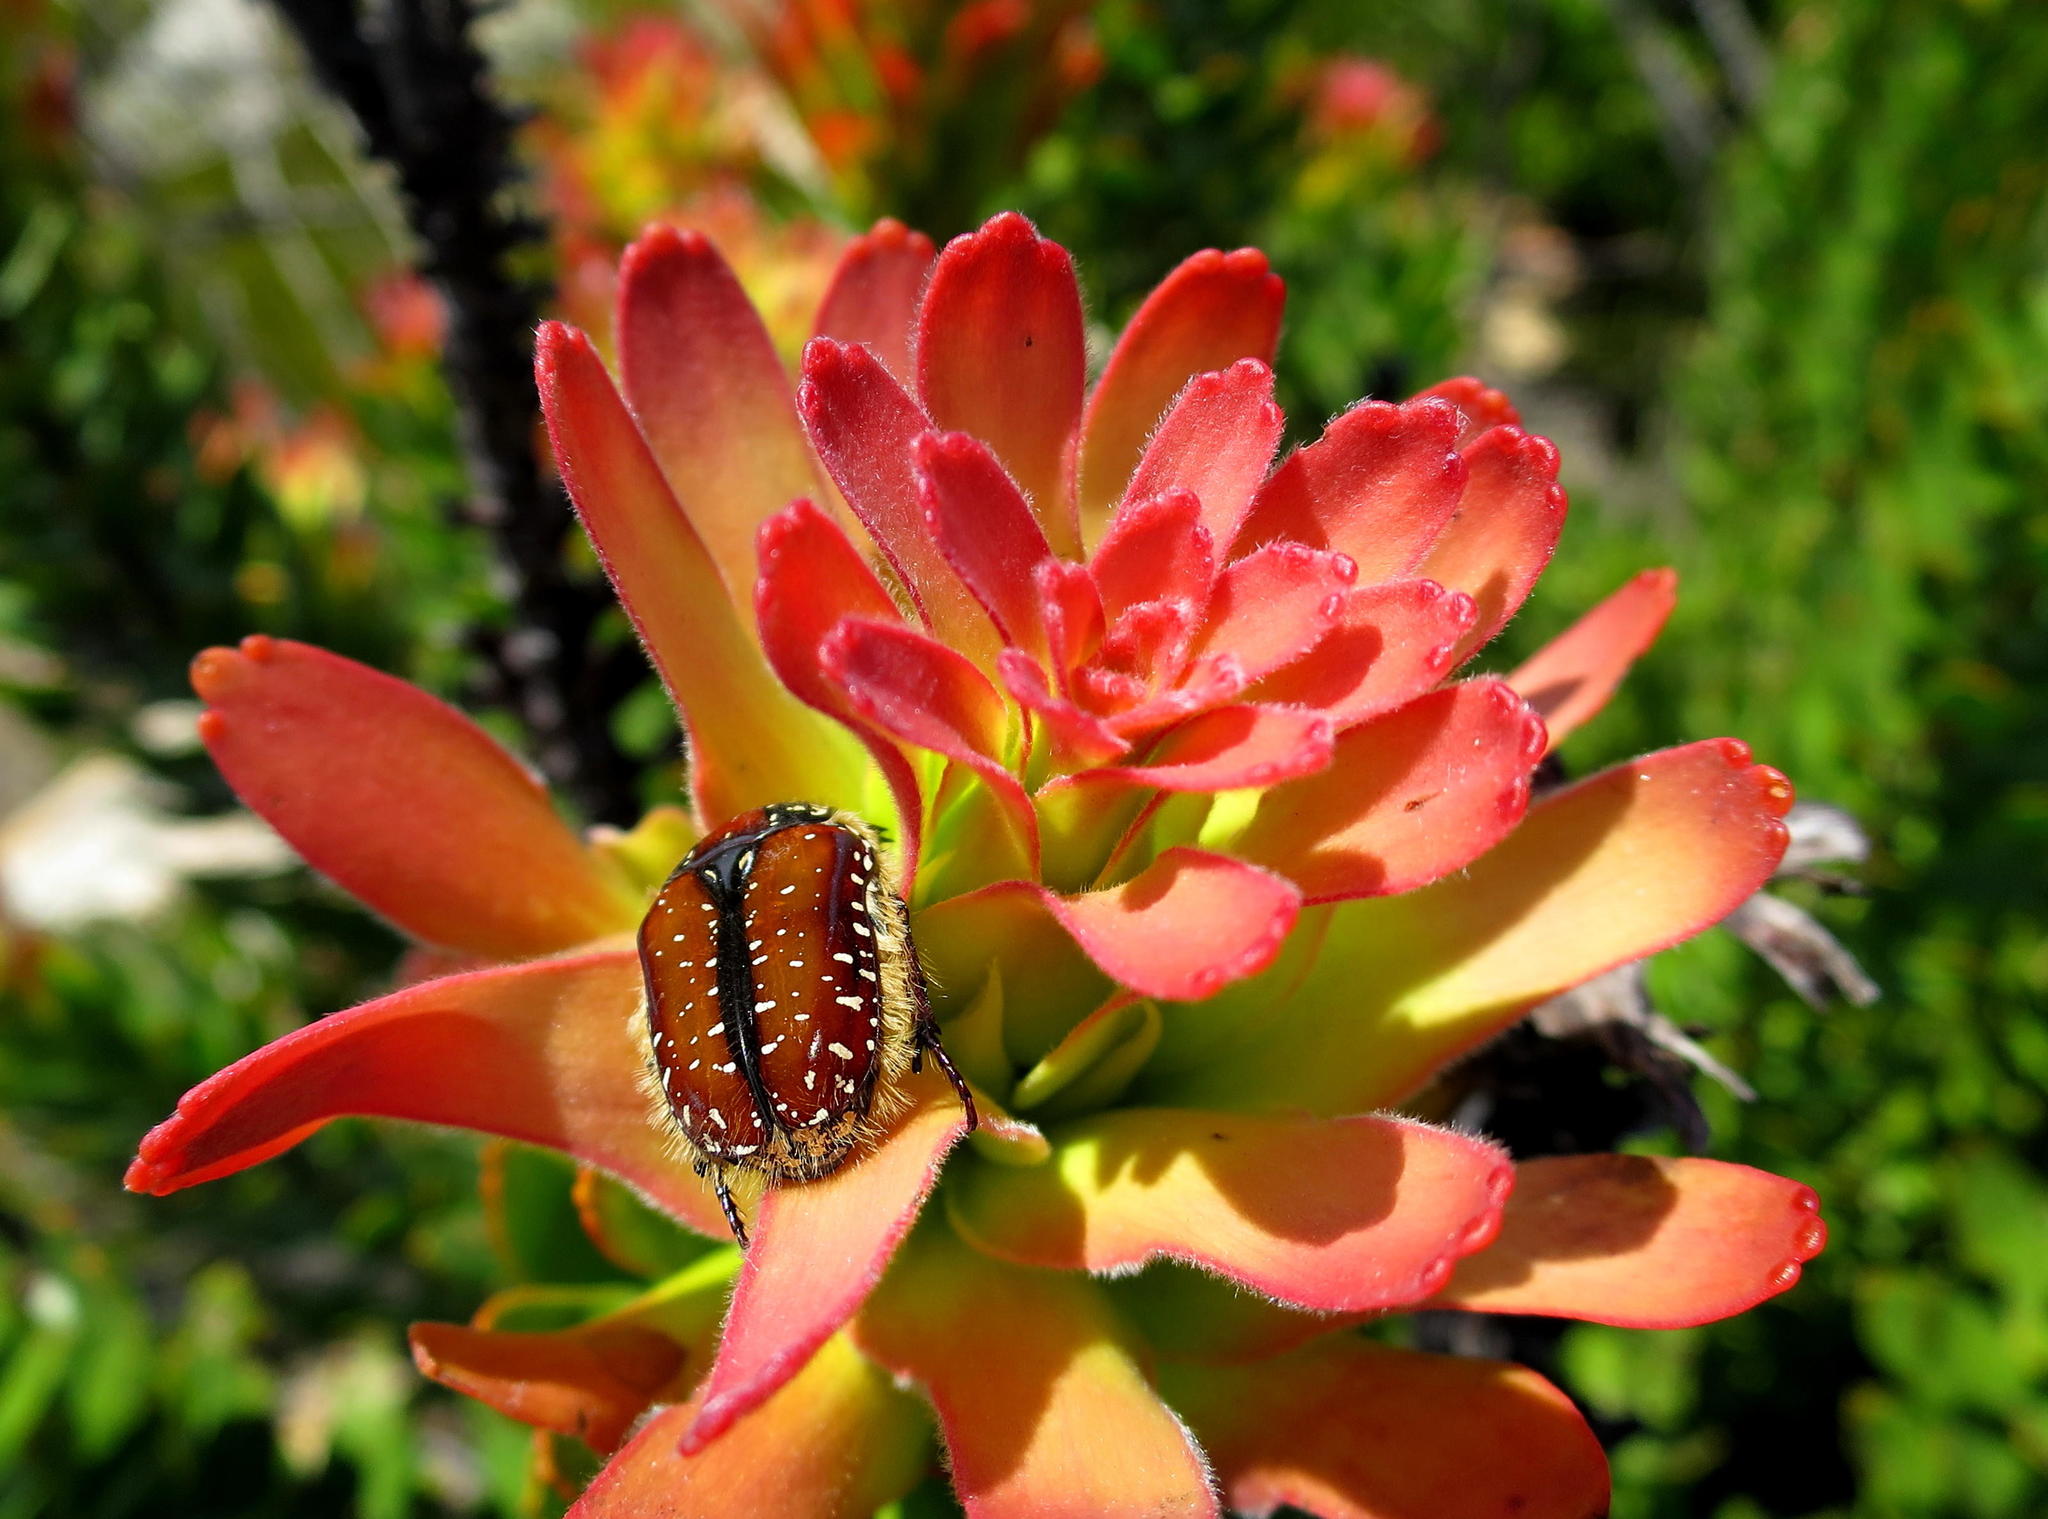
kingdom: Plantae
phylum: Tracheophyta
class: Magnoliopsida
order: Proteales
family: Proteaceae
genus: Mimetes
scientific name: Mimetes cucullatus
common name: Common pagoda
